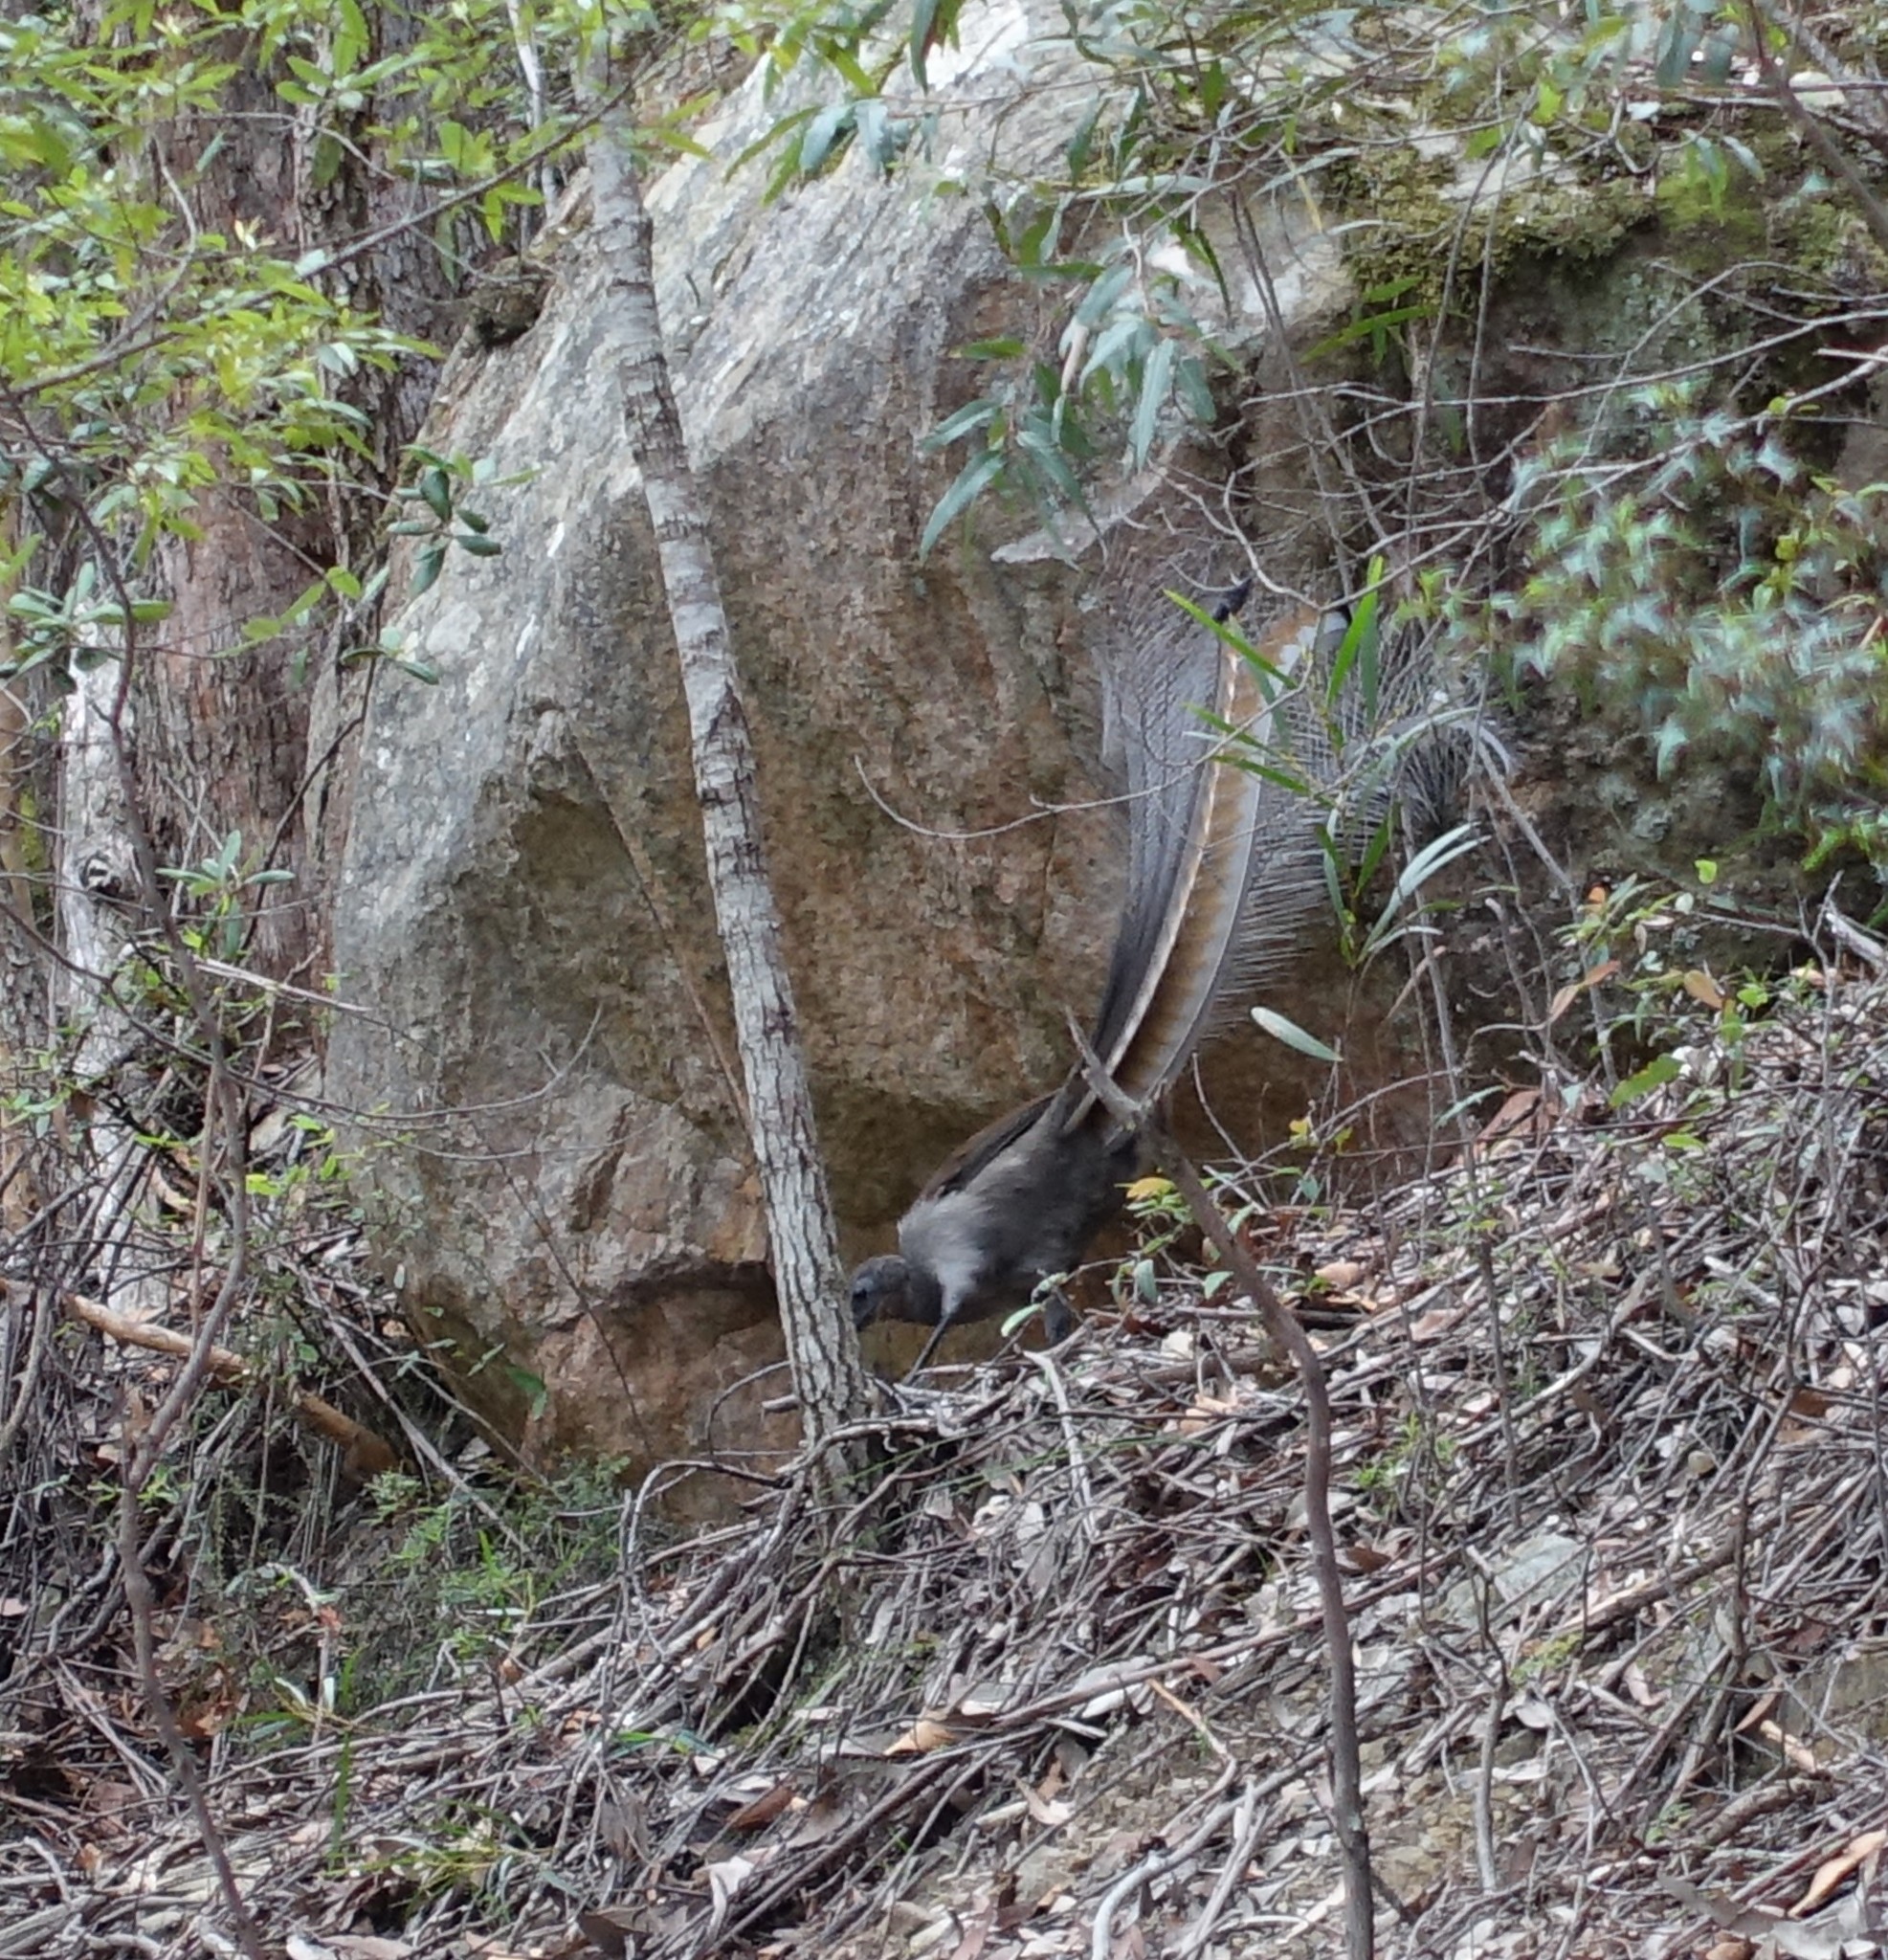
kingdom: Animalia
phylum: Chordata
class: Aves
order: Passeriformes
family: Menuridae
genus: Menura
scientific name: Menura novaehollandiae
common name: Superb lyrebird
